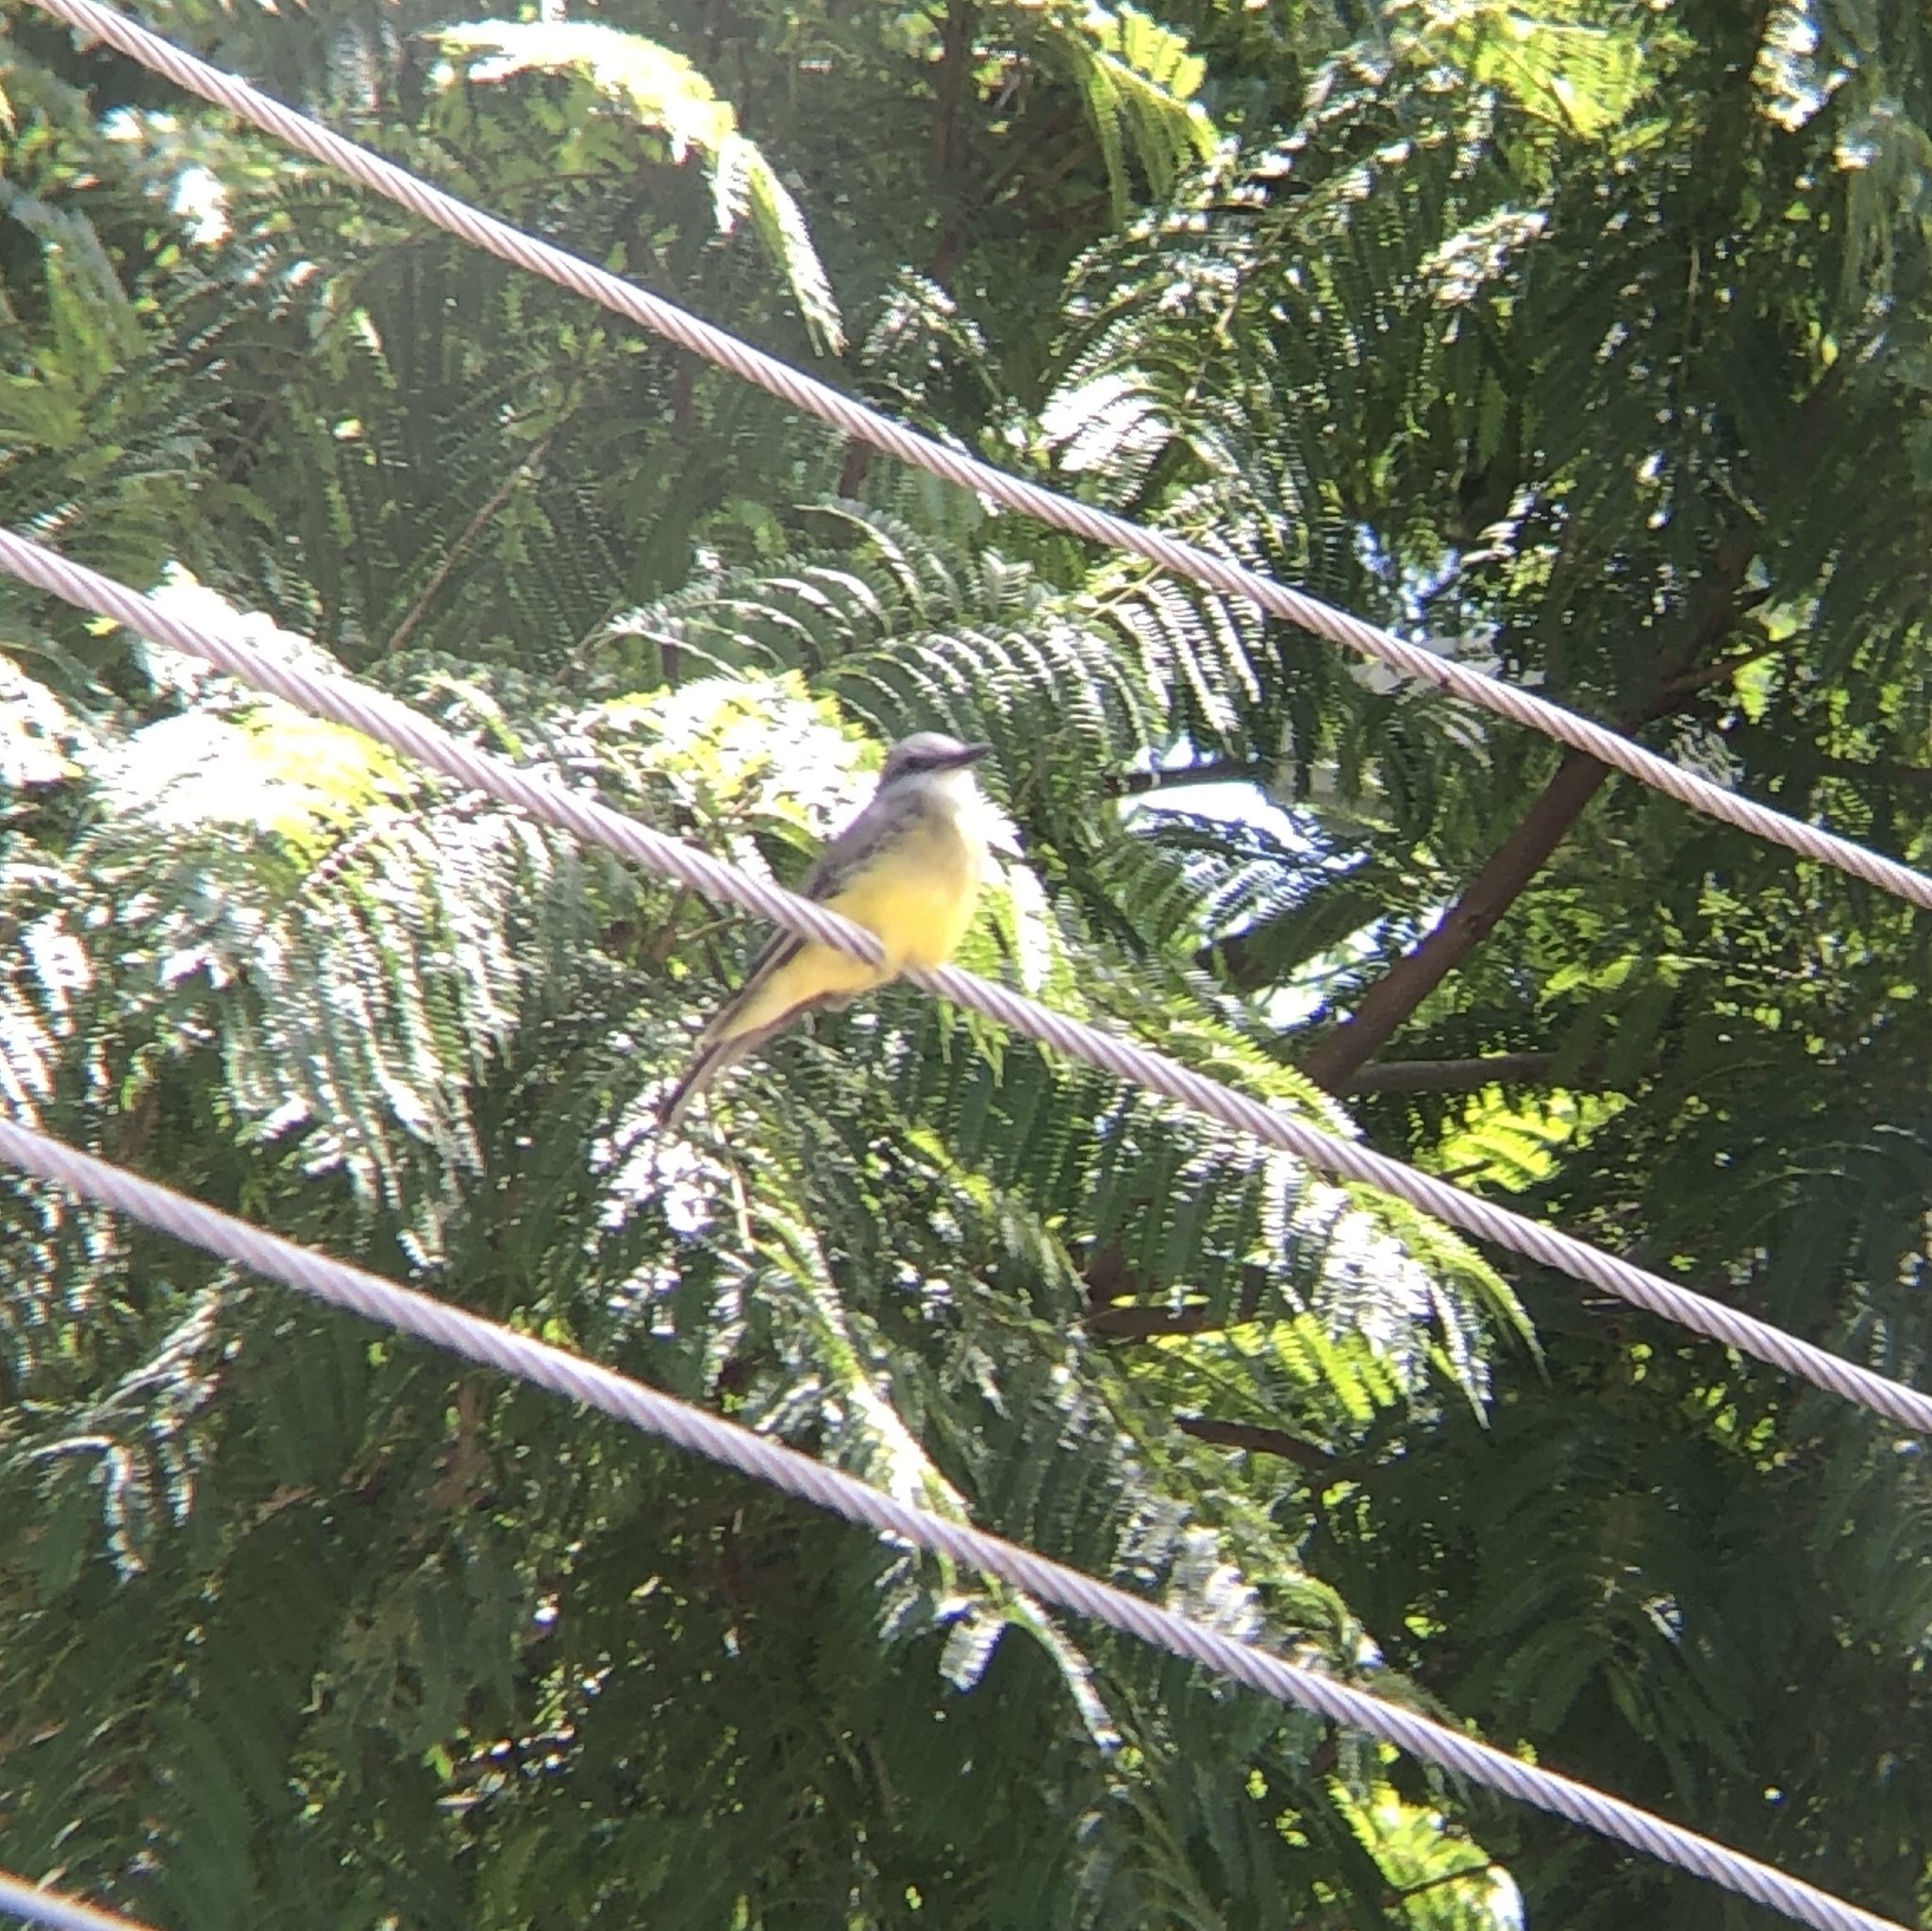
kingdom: Animalia
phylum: Chordata
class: Aves
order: Passeriformes
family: Tyrannidae
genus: Tyrannus
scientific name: Tyrannus melancholicus
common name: Tropical kingbird
